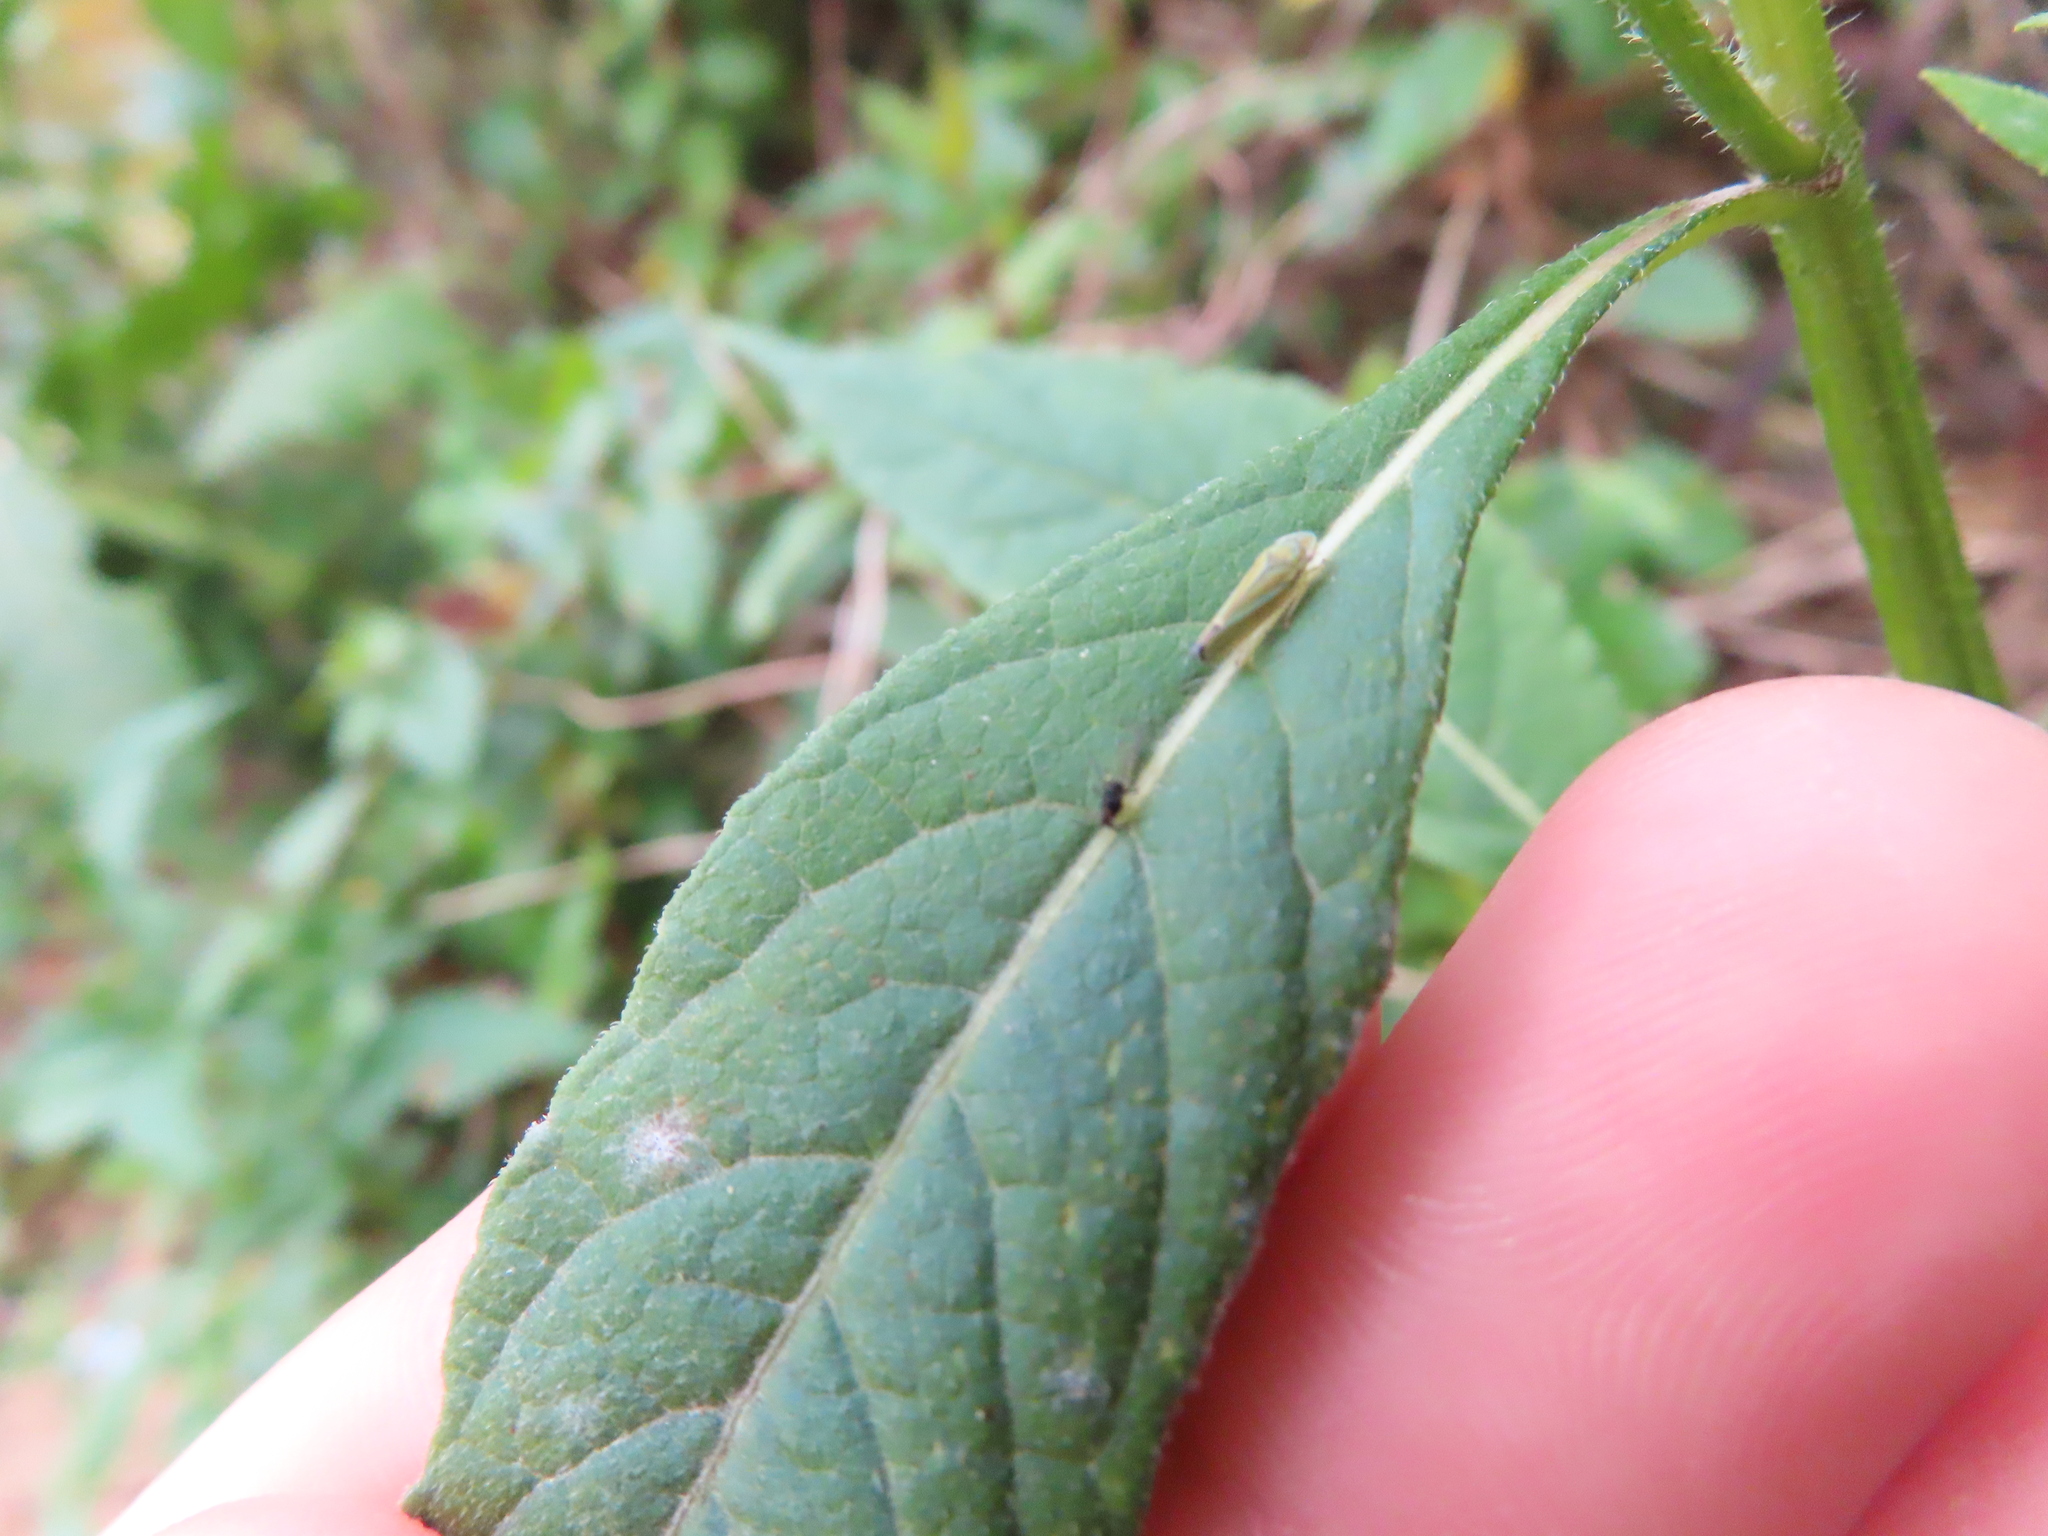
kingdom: Animalia
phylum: Arthropoda
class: Insecta
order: Hemiptera
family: Cicadellidae
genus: Graphocephala
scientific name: Graphocephala versuta
